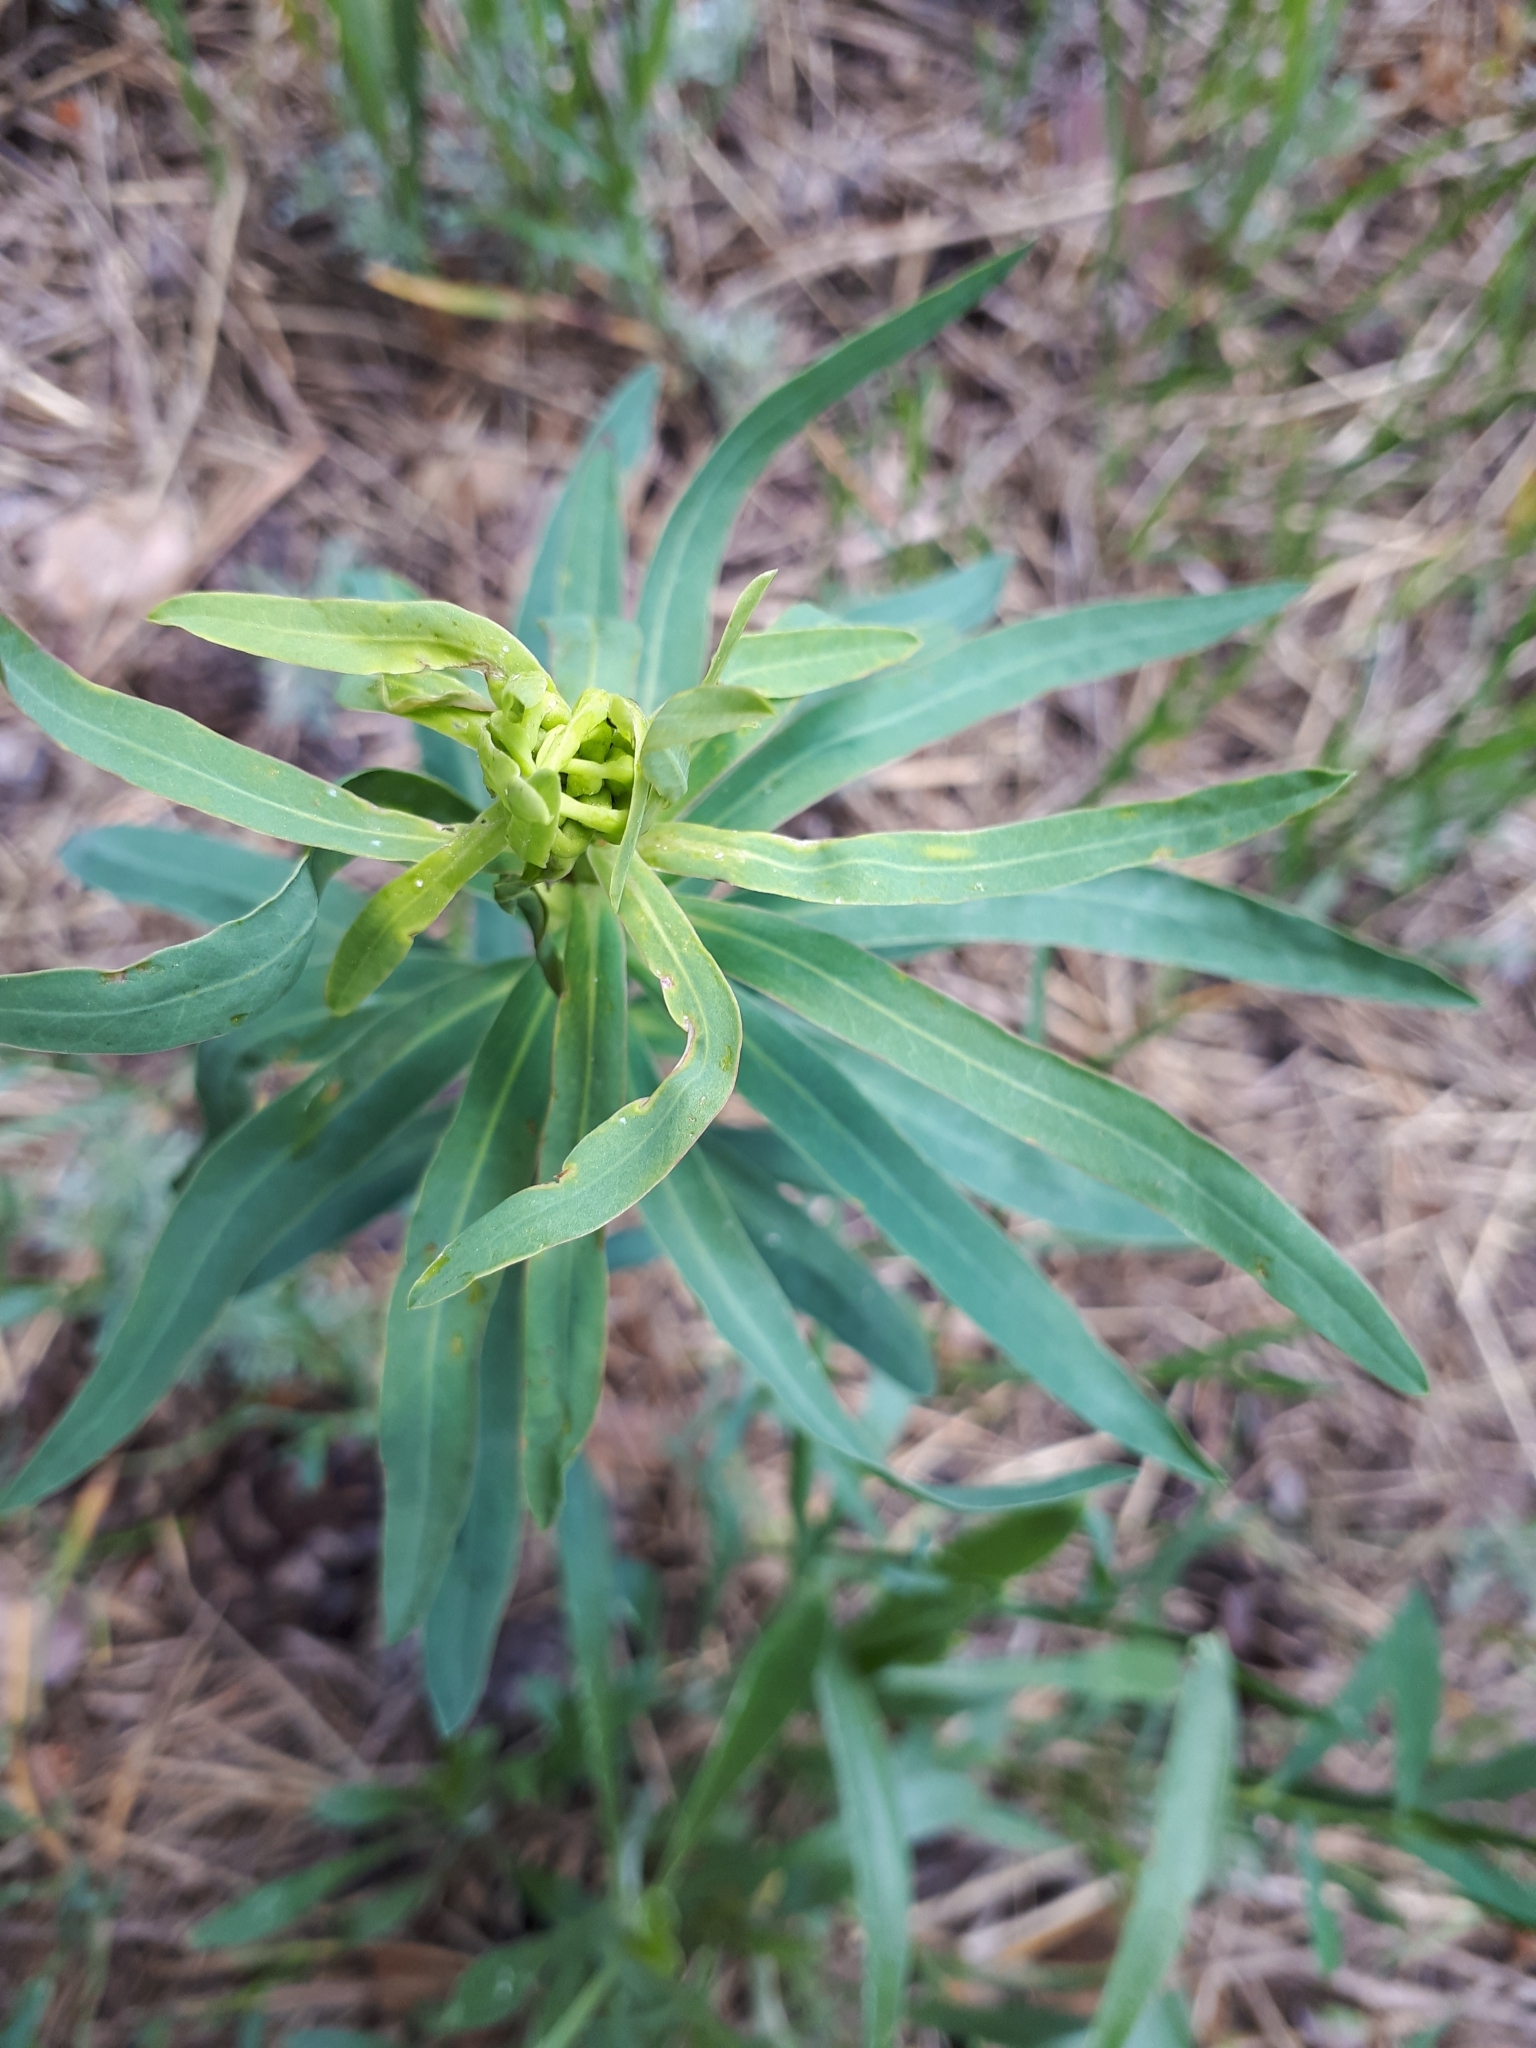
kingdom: Plantae
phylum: Tracheophyta
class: Magnoliopsida
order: Malpighiales
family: Euphorbiaceae
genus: Euphorbia
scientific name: Euphorbia virgata
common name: Leafy spurge
